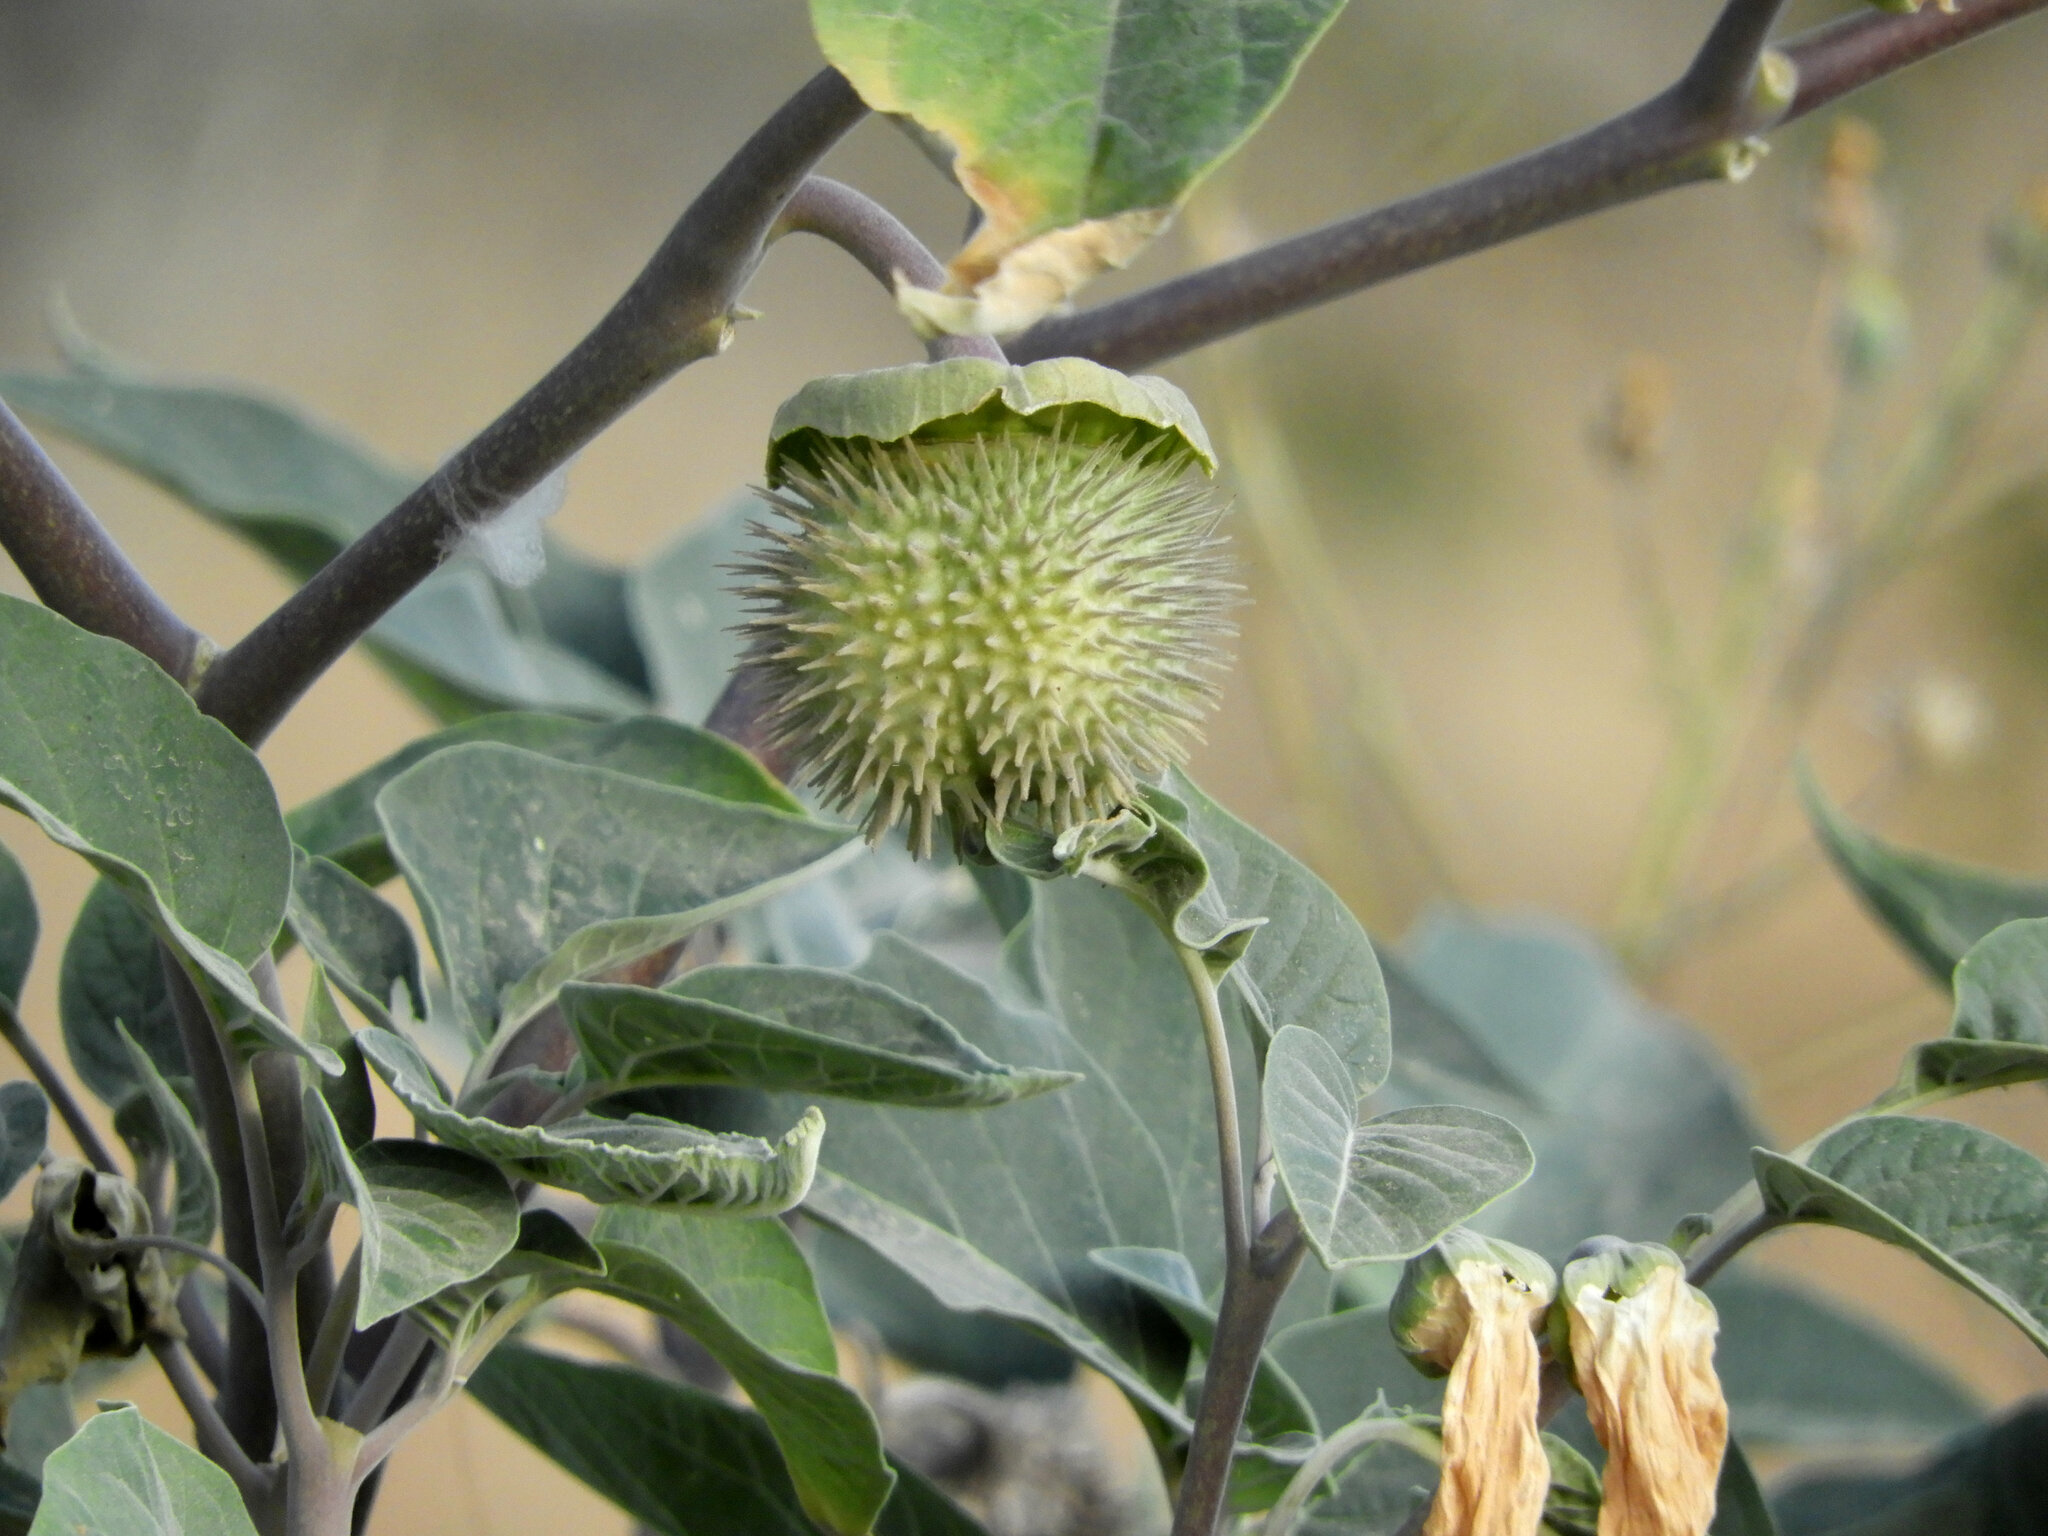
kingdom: Plantae
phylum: Tracheophyta
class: Magnoliopsida
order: Solanales
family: Solanaceae
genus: Datura
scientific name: Datura wrightii
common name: Sacred thorn-apple
